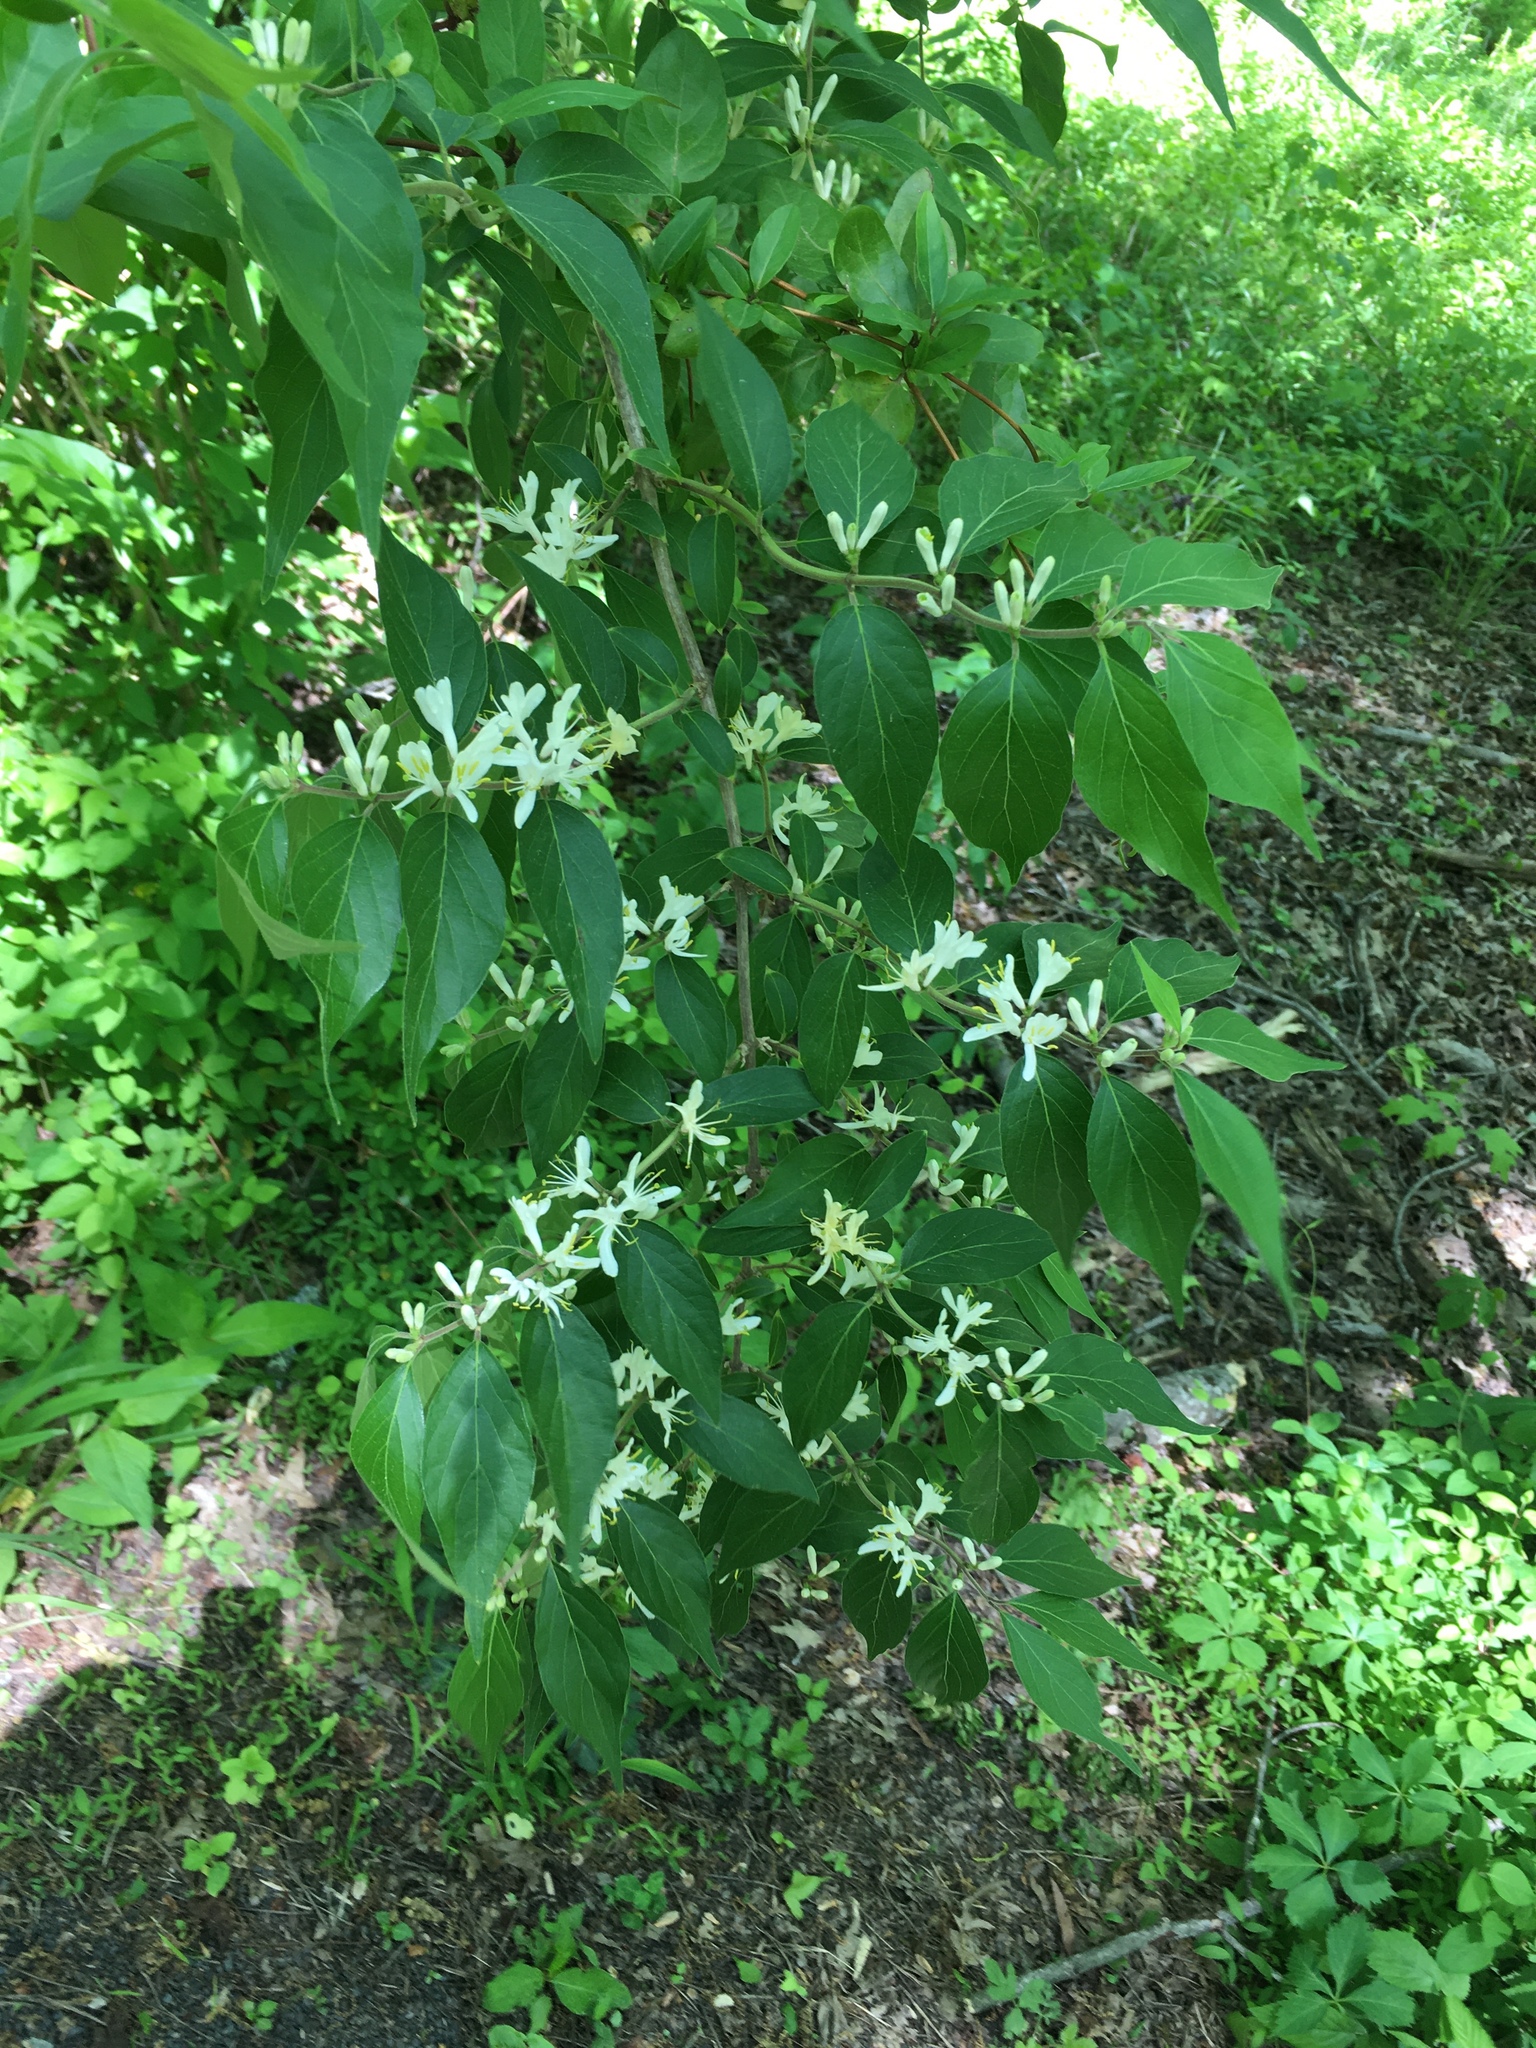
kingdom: Plantae
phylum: Tracheophyta
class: Magnoliopsida
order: Dipsacales
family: Caprifoliaceae
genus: Lonicera
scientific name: Lonicera maackii
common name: Amur honeysuckle
